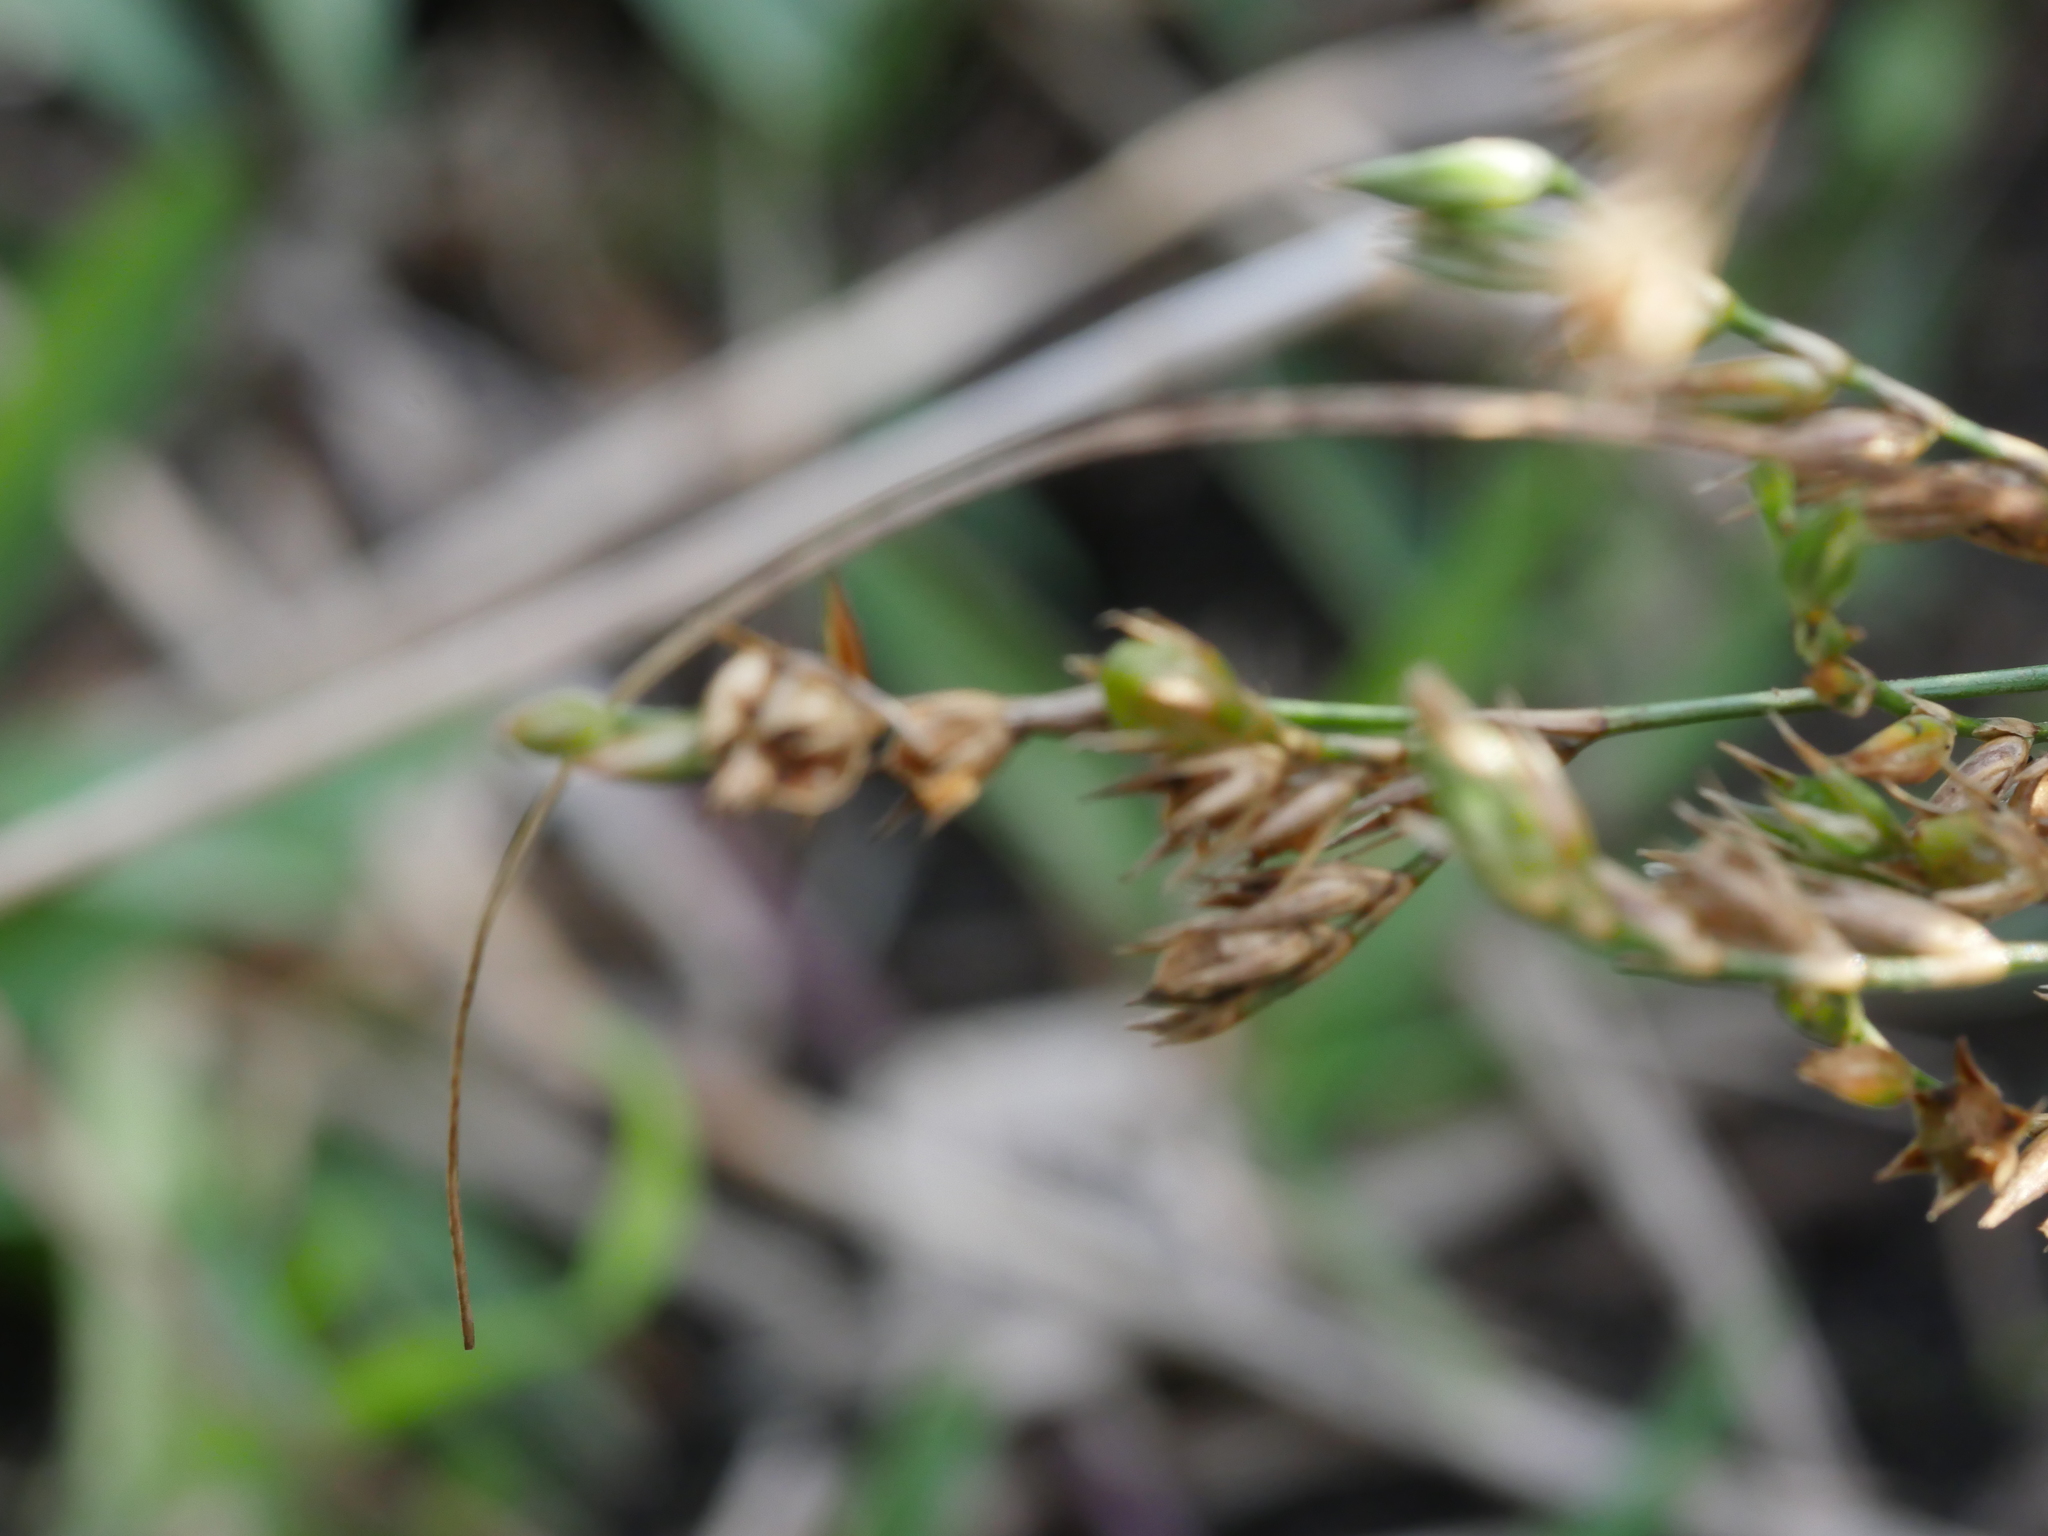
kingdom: Plantae
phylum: Tracheophyta
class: Liliopsida
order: Poales
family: Juncaceae
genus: Juncus
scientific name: Juncus bufonius
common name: Toad rush
